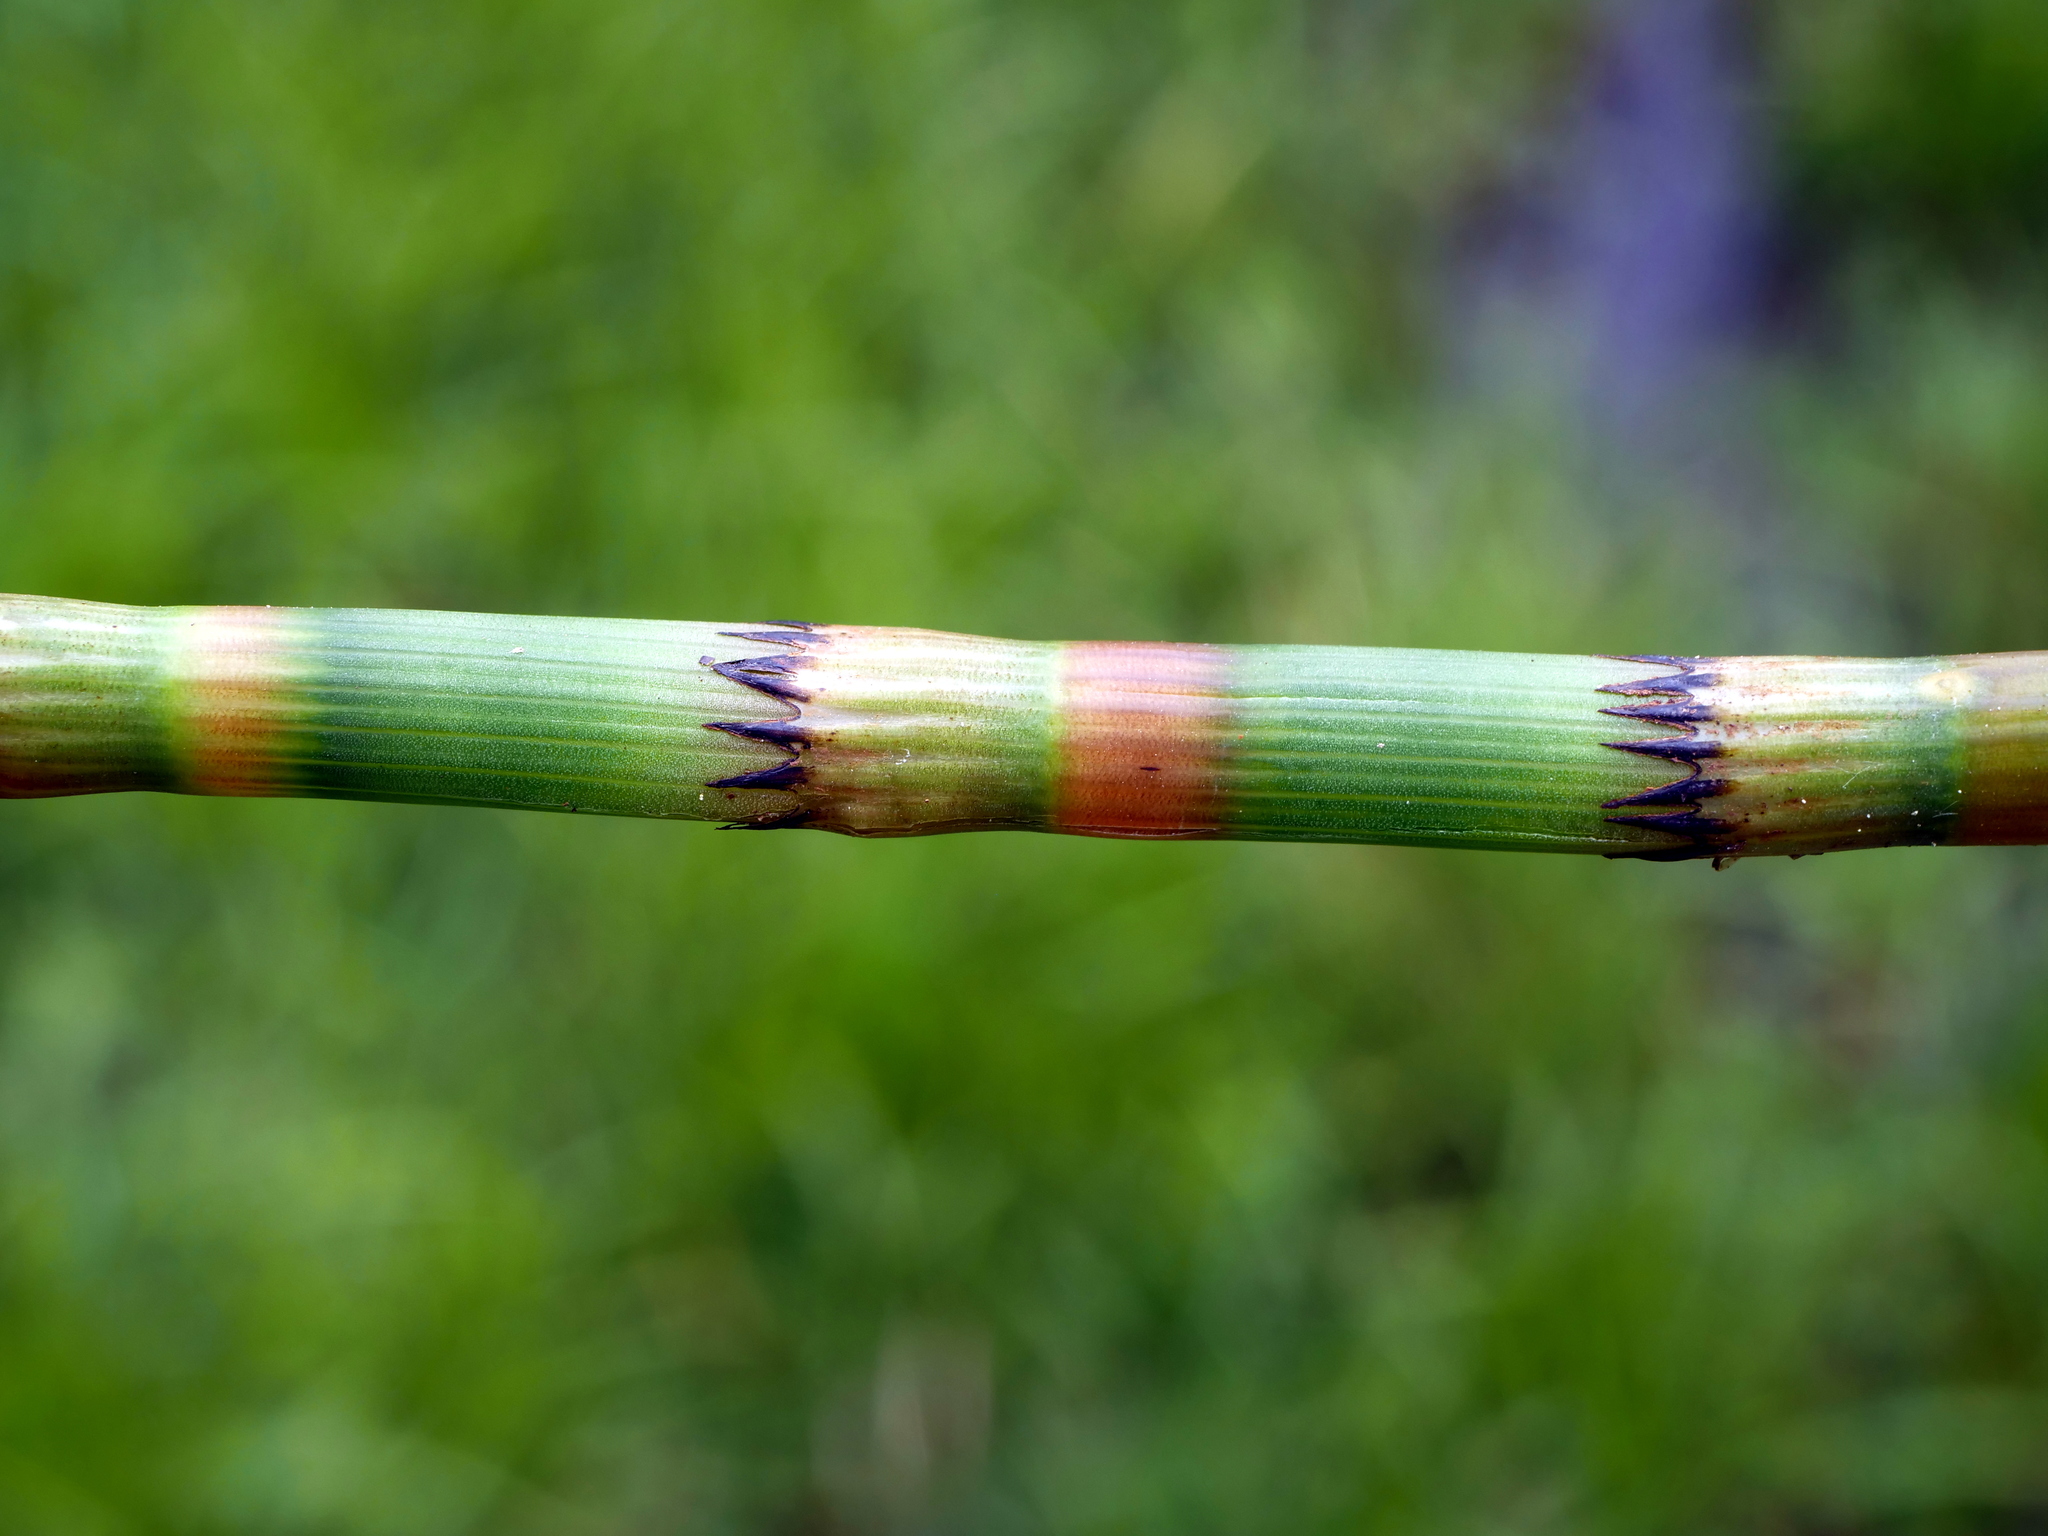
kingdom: Plantae
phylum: Tracheophyta
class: Polypodiopsida
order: Equisetales
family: Equisetaceae
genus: Equisetum
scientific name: Equisetum fluviatile
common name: Water horsetail
